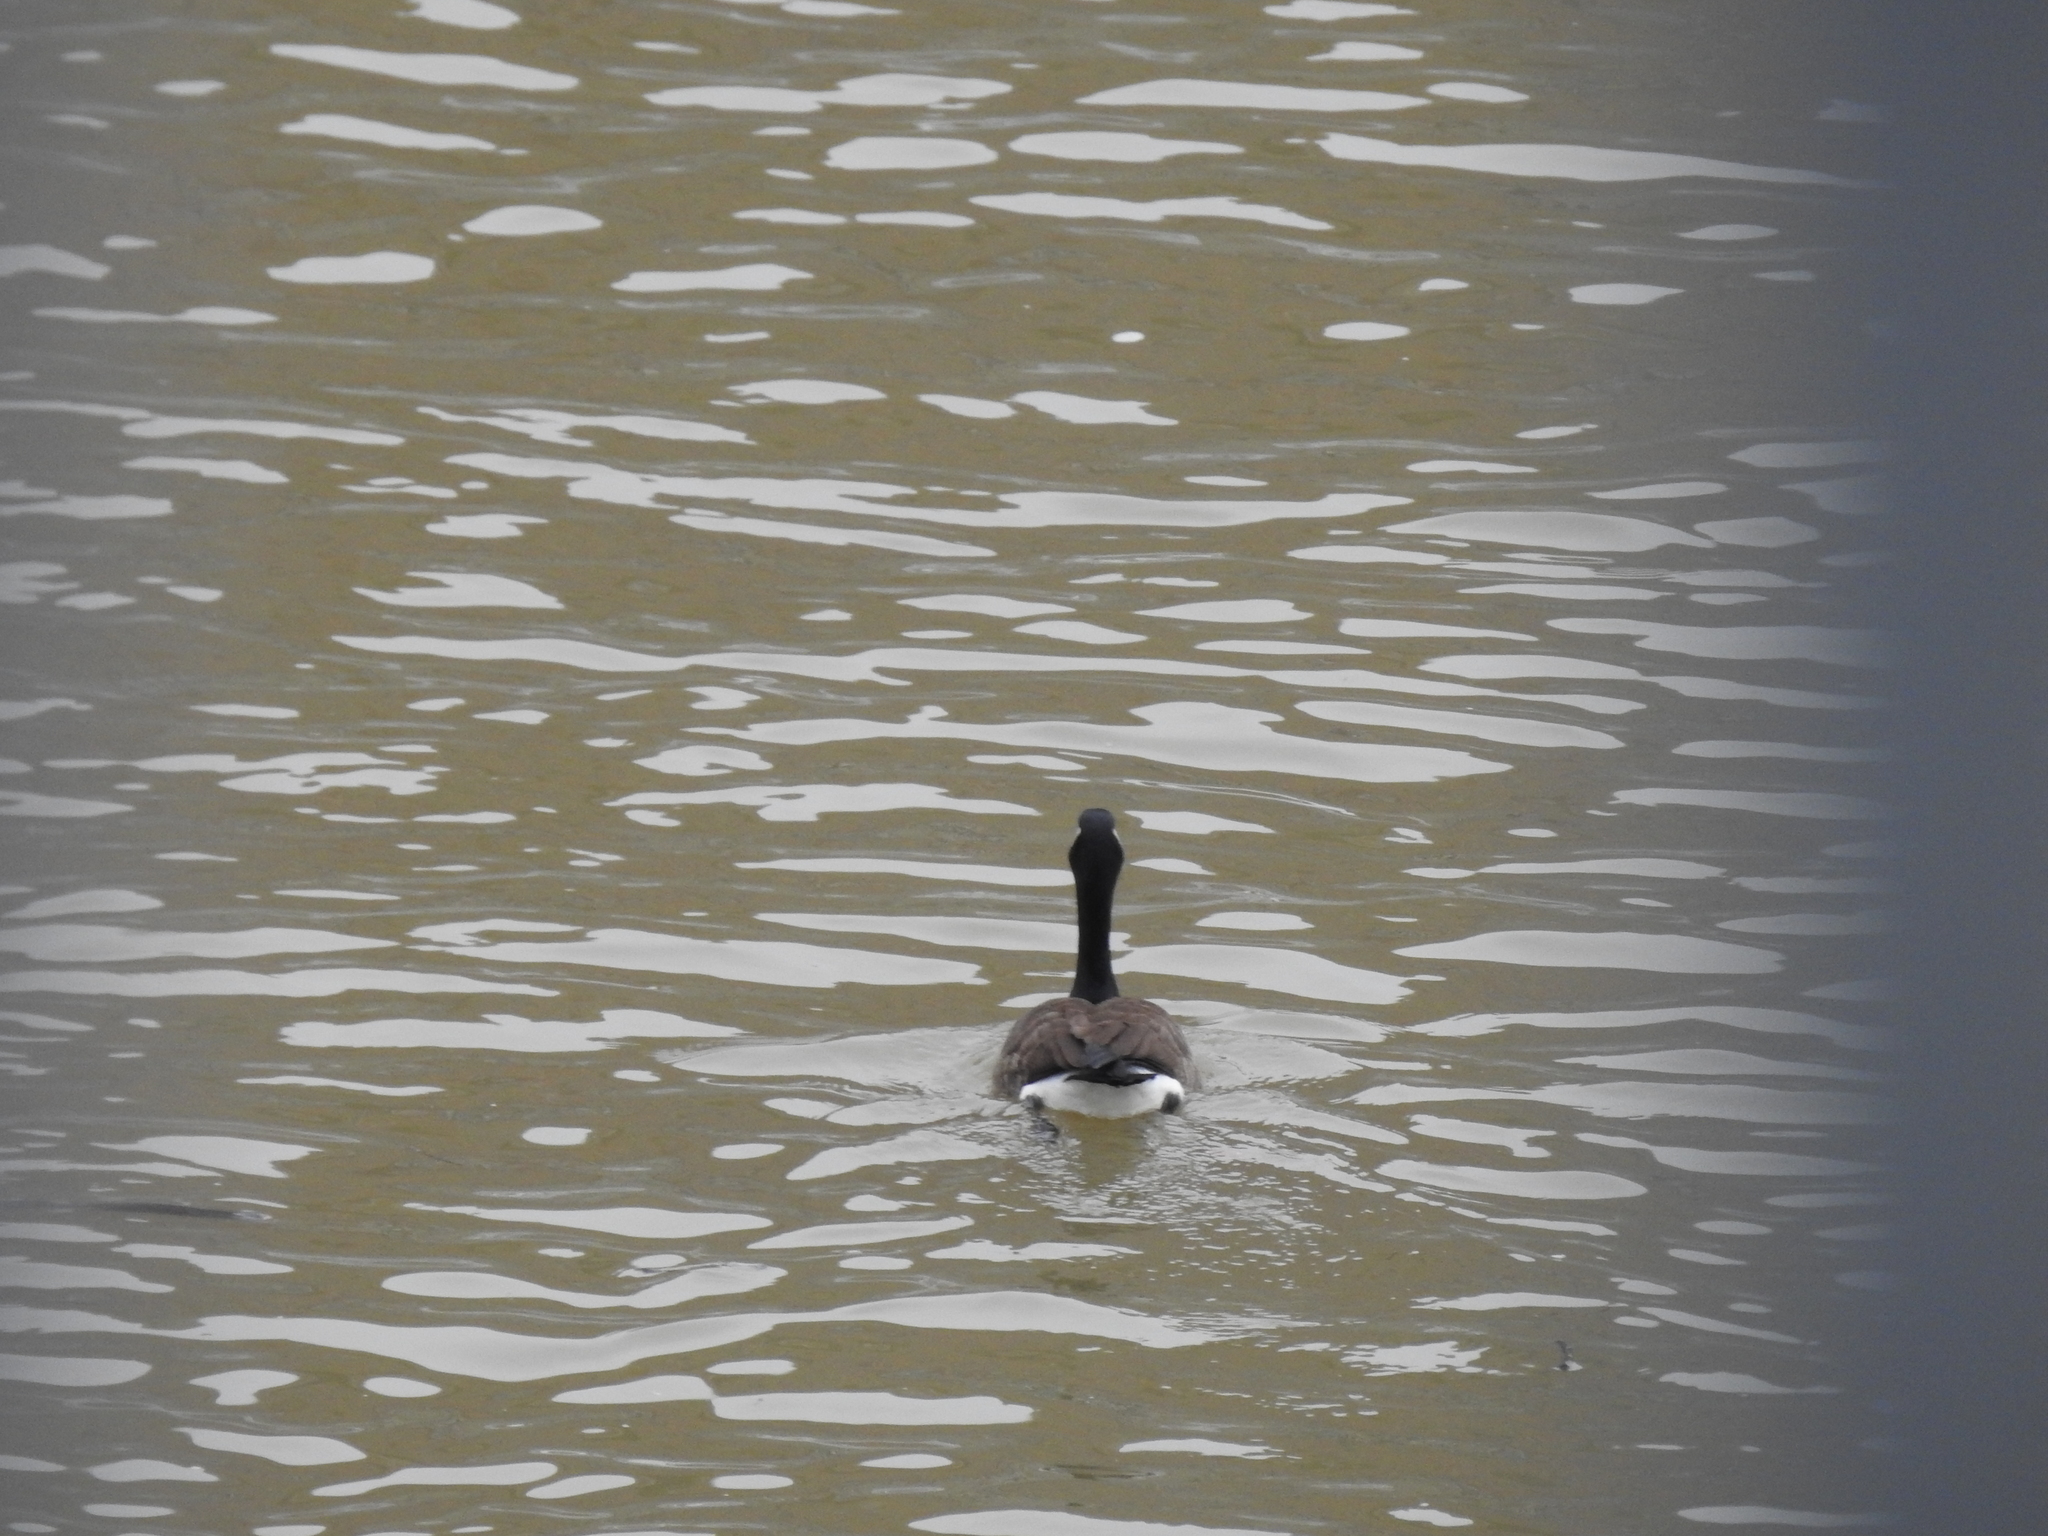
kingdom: Animalia
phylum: Chordata
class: Aves
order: Anseriformes
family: Anatidae
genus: Branta
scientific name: Branta canadensis
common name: Canada goose
